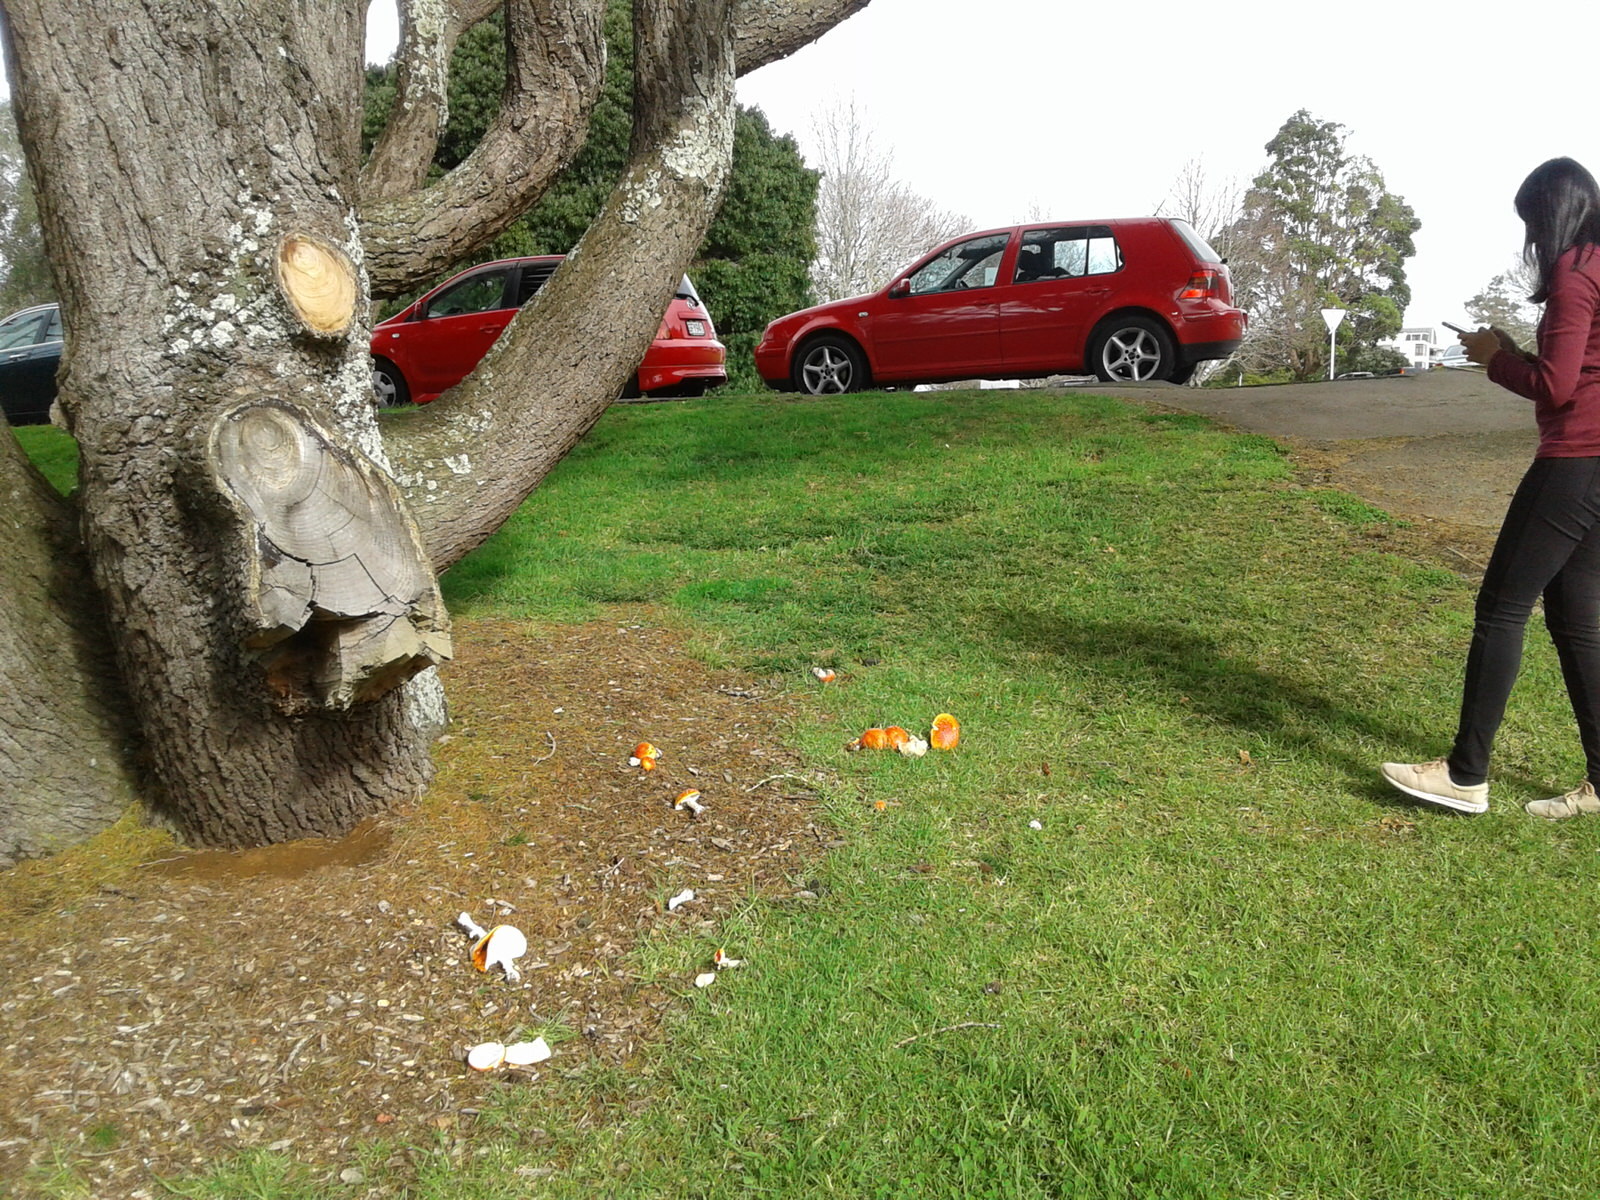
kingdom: Fungi
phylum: Basidiomycota
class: Agaricomycetes
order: Agaricales
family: Amanitaceae
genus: Amanita
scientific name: Amanita muscaria
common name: Fly agaric
